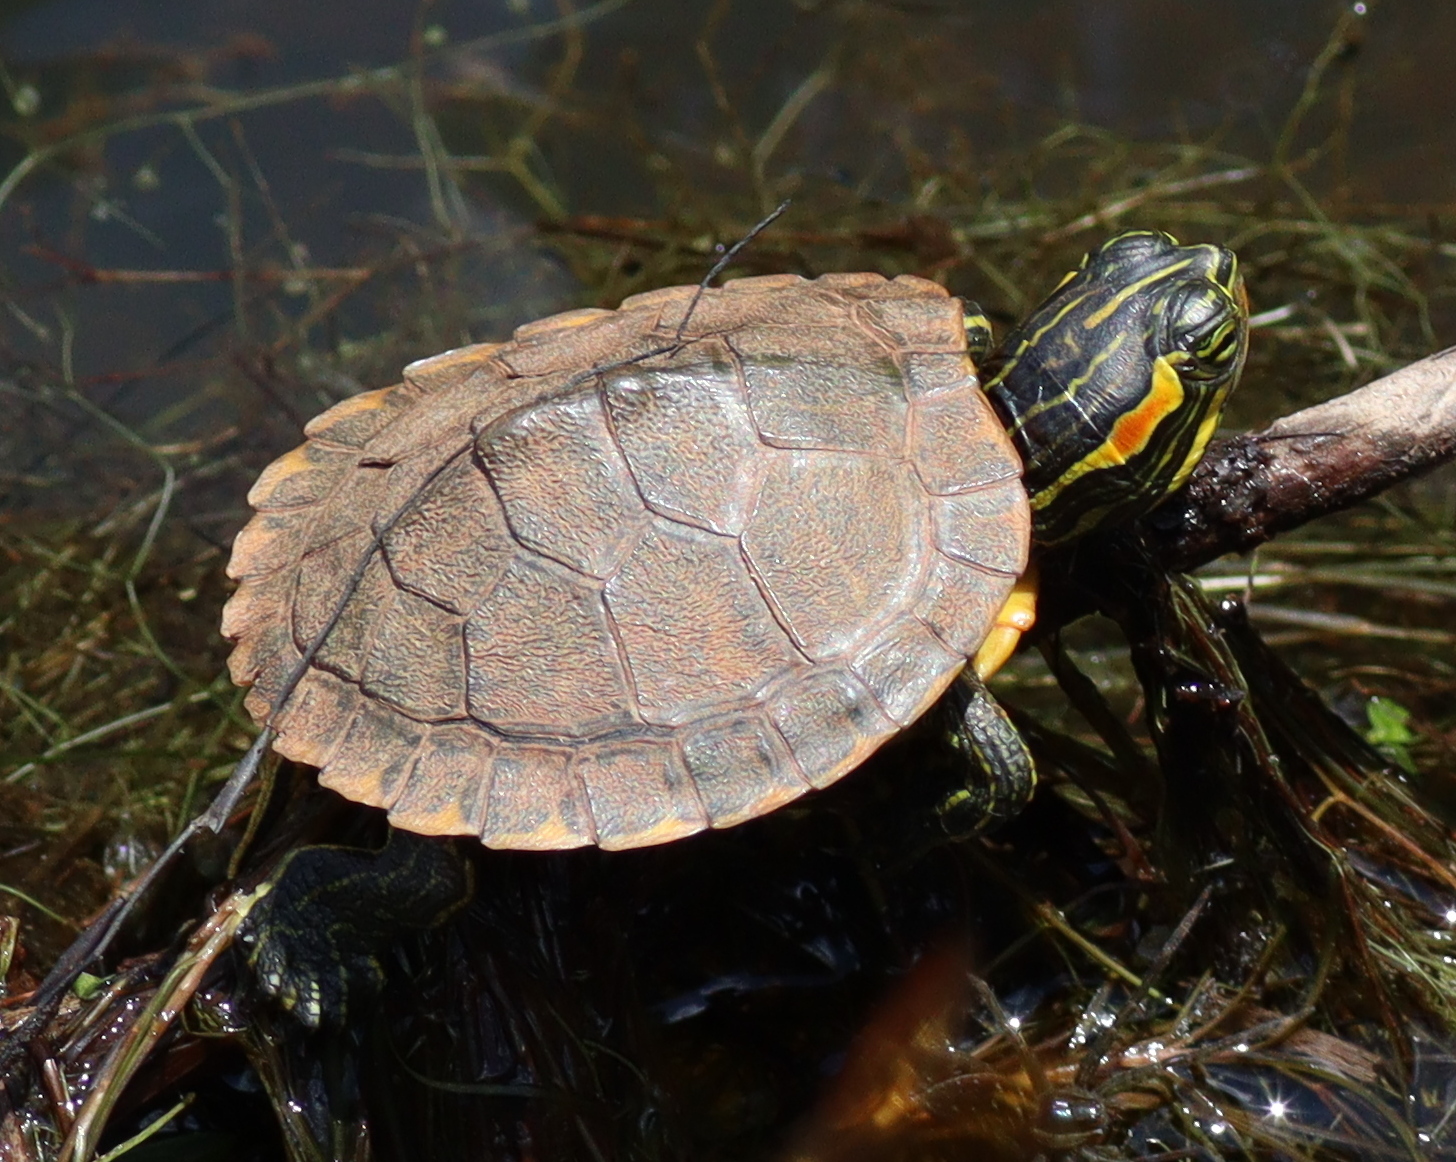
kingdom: Animalia
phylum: Chordata
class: Testudines
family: Emydidae
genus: Trachemys
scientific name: Trachemys scripta
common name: Slider
